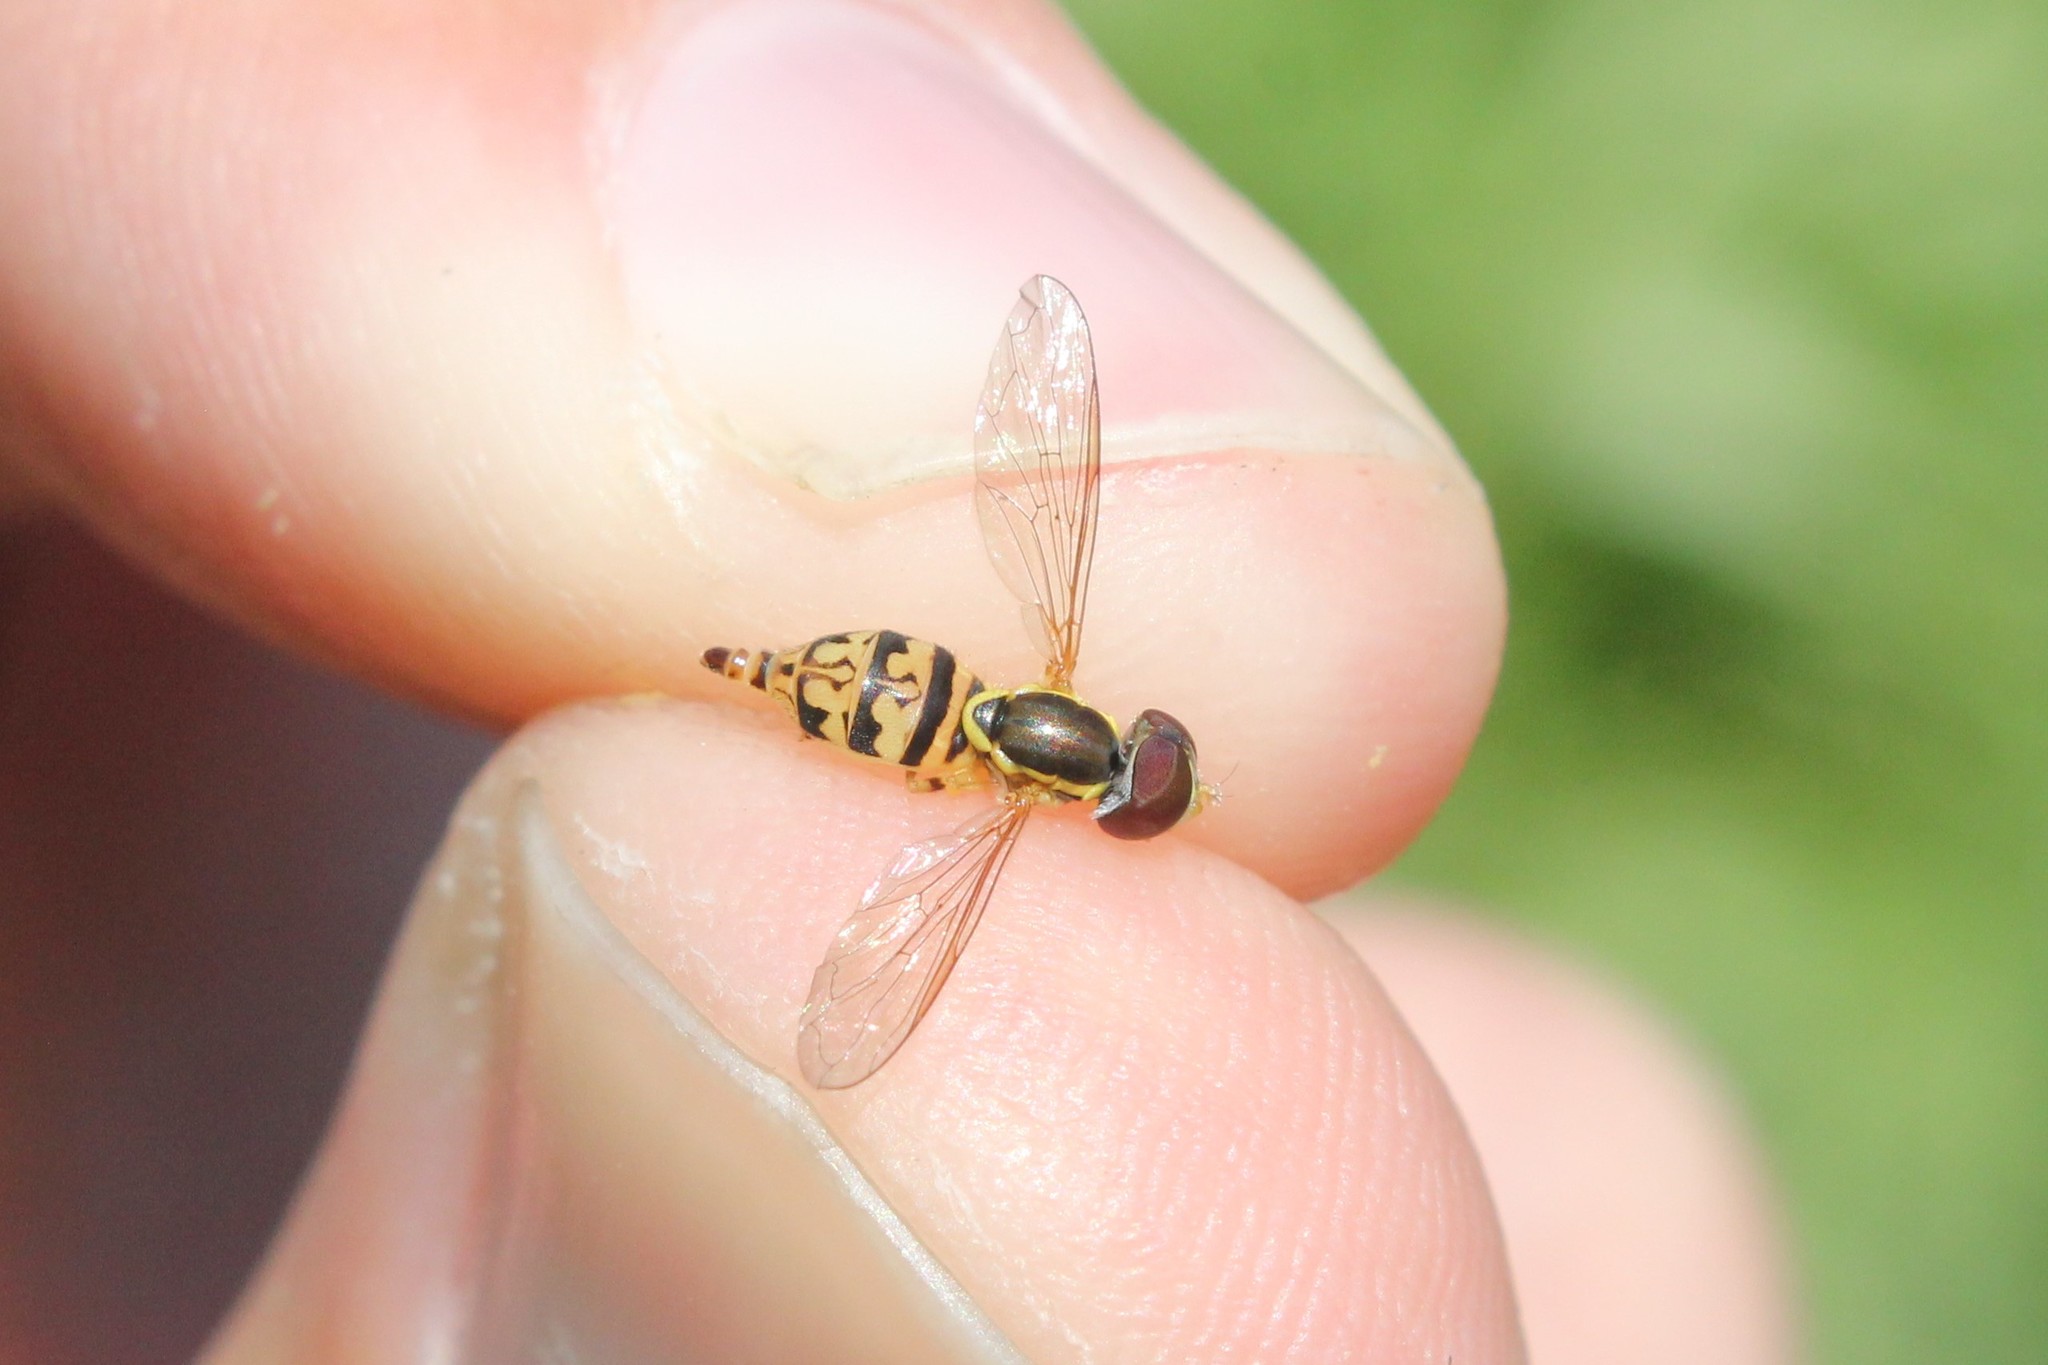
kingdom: Animalia
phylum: Arthropoda
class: Insecta
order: Diptera
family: Syrphidae
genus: Toxomerus
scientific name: Toxomerus geminatus
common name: Eastern calligrapher
